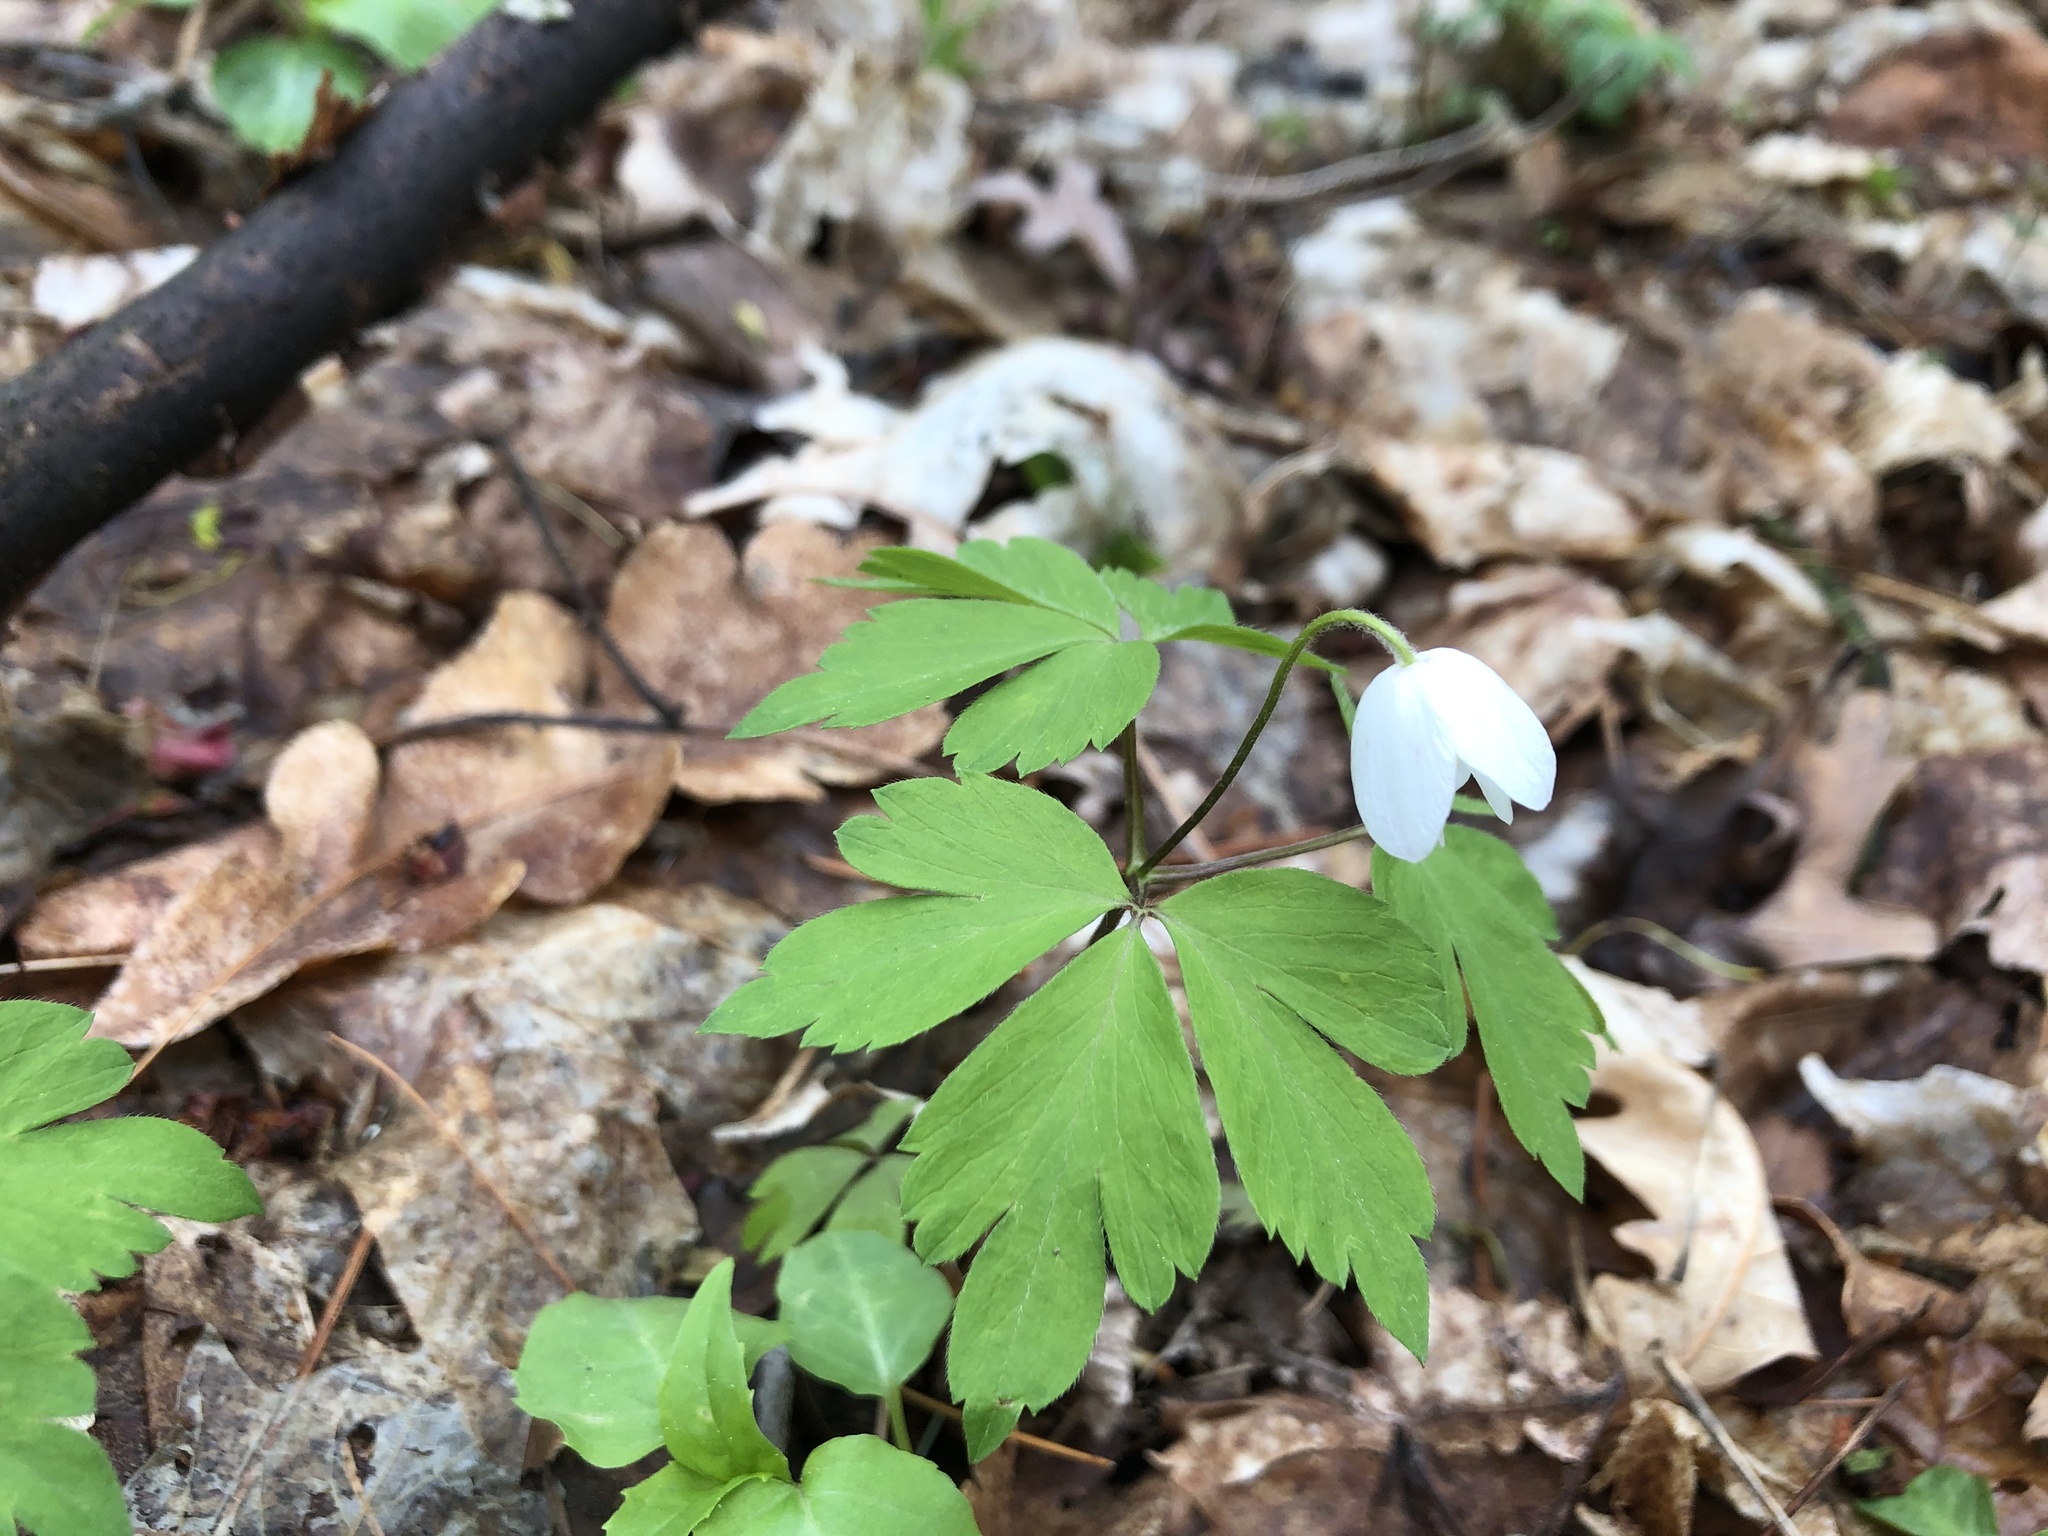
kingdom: Plantae
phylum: Tracheophyta
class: Magnoliopsida
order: Ranunculales
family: Ranunculaceae
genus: Anemone
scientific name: Anemone quinquefolia
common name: Wood anemone
